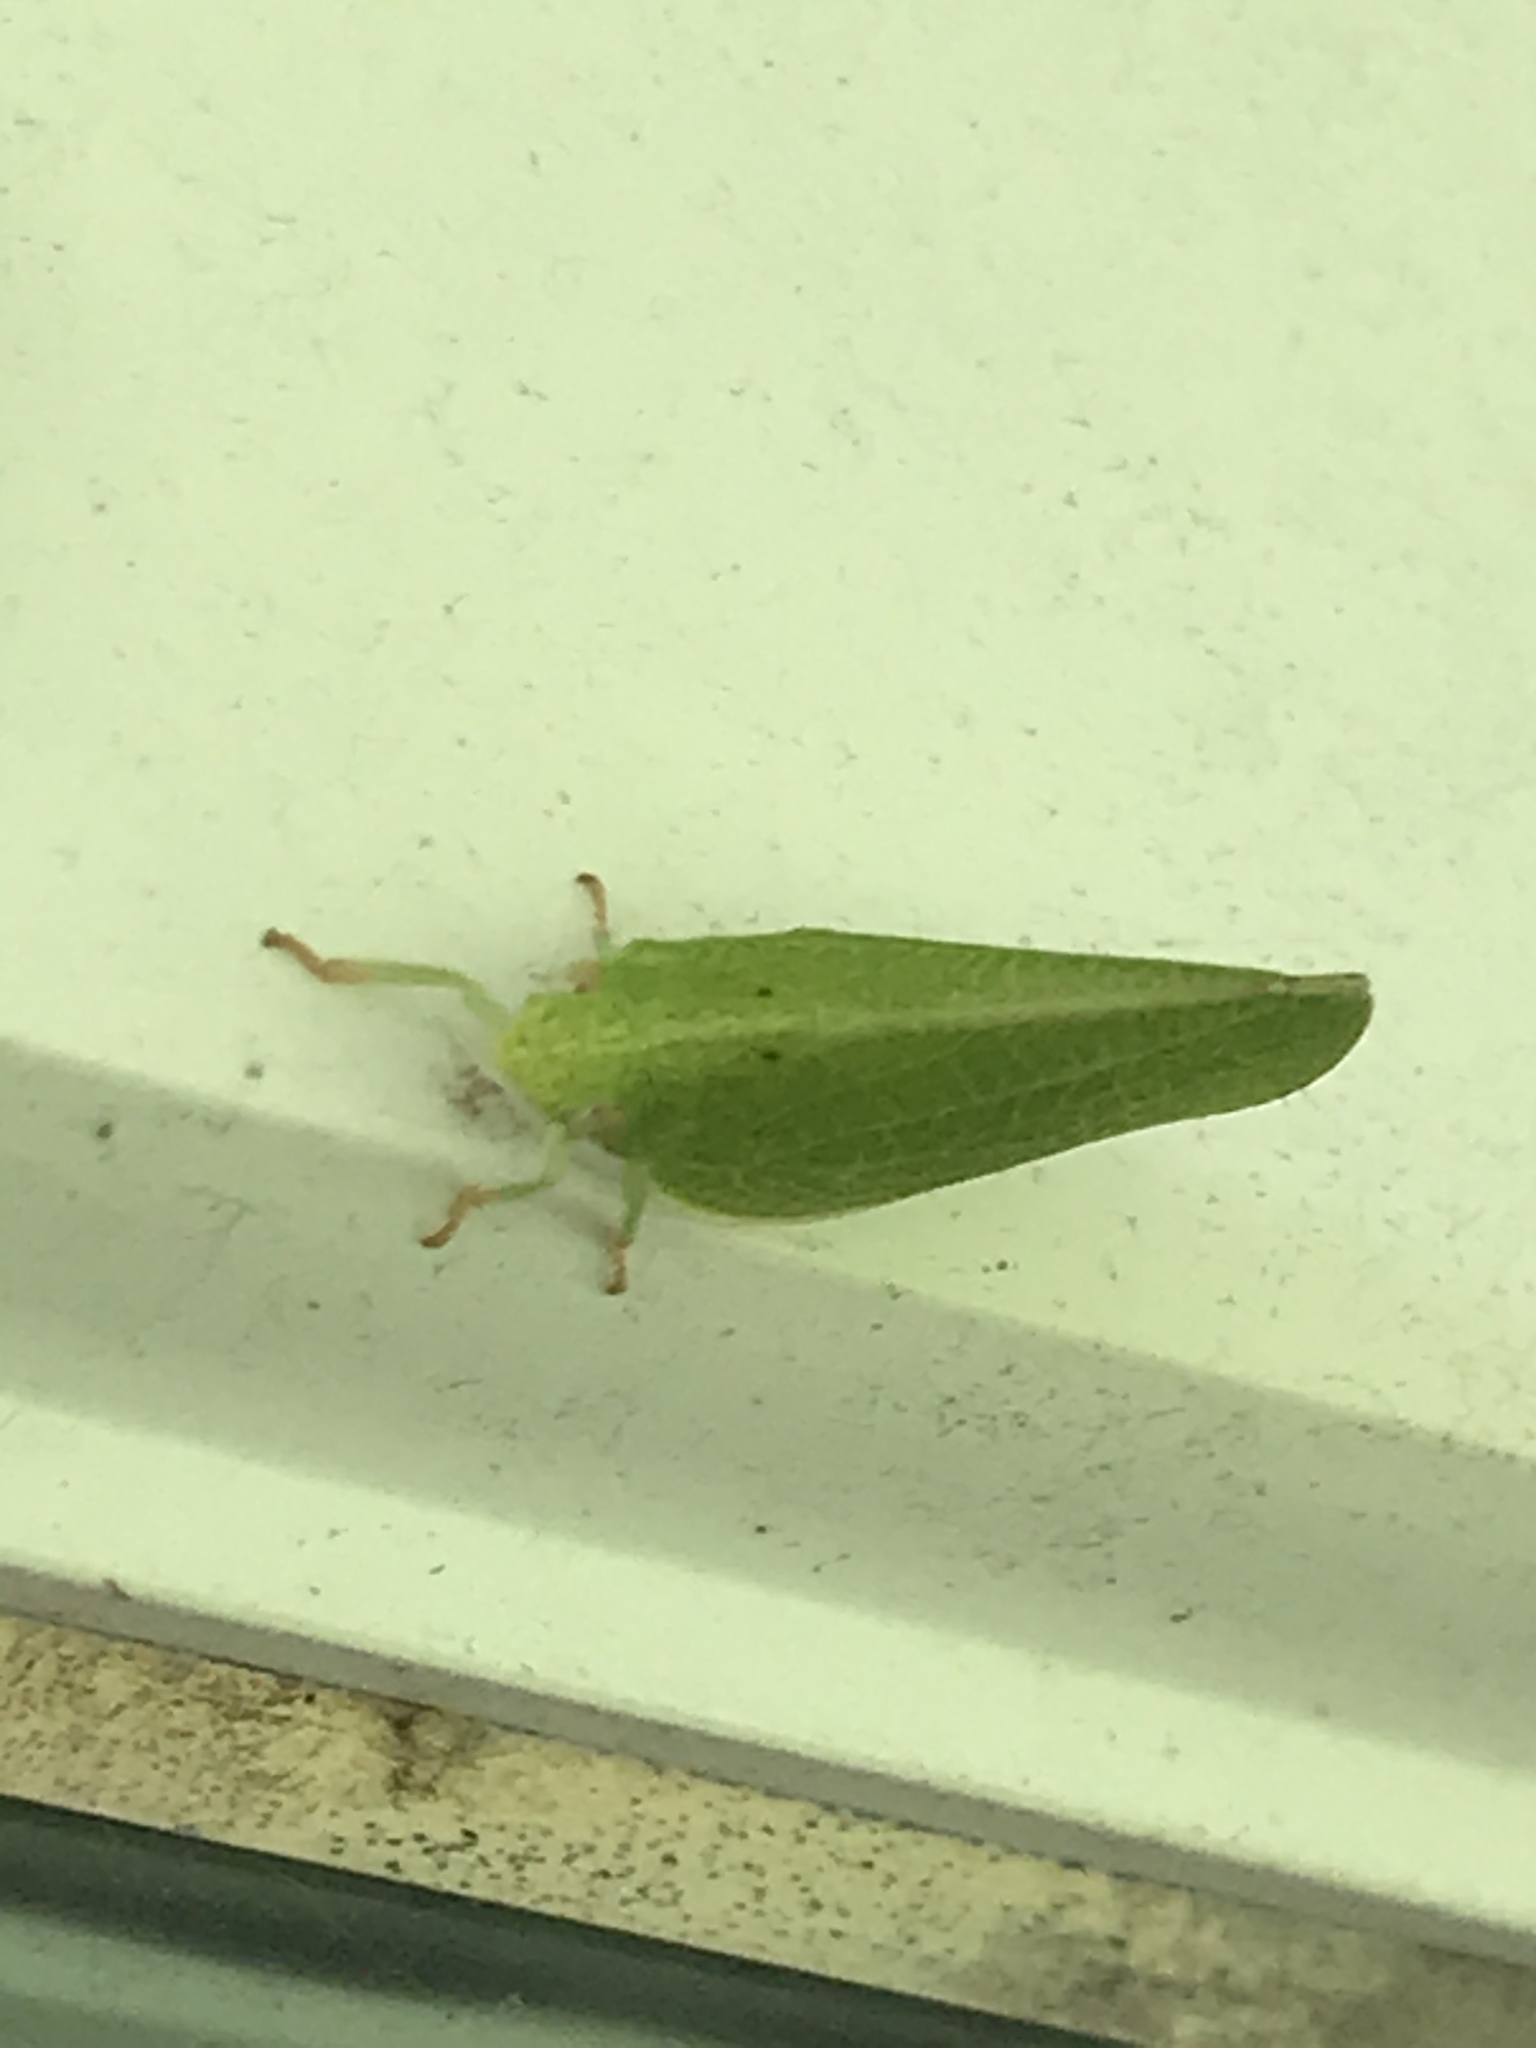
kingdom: Animalia
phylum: Arthropoda
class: Insecta
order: Hemiptera
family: Acanaloniidae
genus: Acanalonia
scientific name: Acanalonia conica
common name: Green cone-headed planthopper
